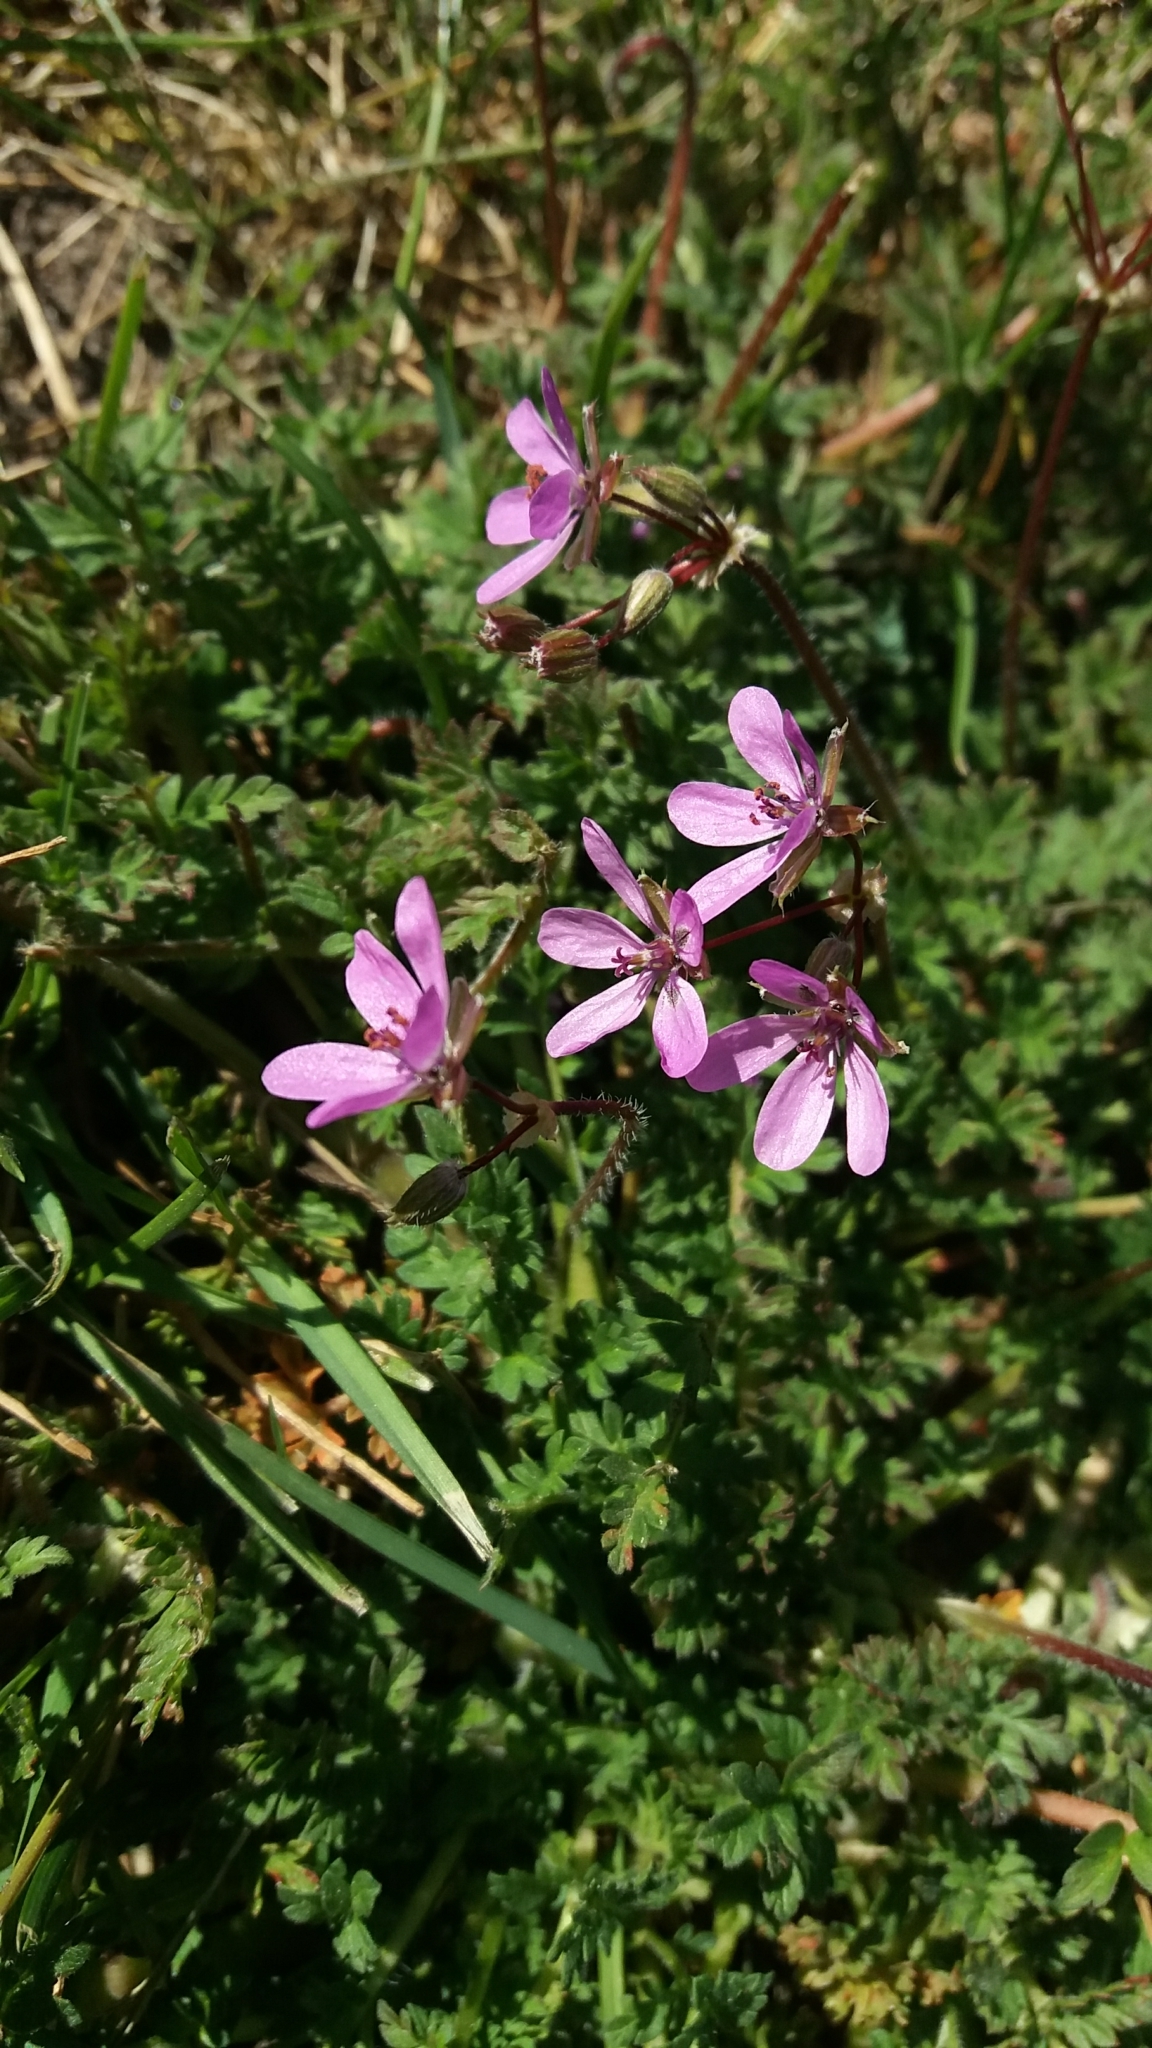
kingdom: Plantae
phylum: Tracheophyta
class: Magnoliopsida
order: Geraniales
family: Geraniaceae
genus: Erodium
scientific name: Erodium cicutarium
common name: Common stork's-bill
